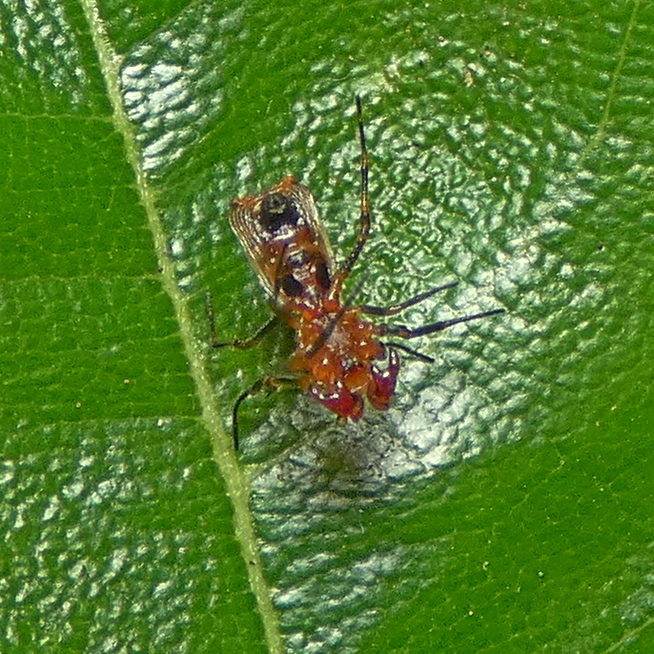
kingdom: Animalia
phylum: Arthropoda
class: Arachnida
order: Araneae
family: Araneidae
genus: Micrathena
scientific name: Micrathena picta
